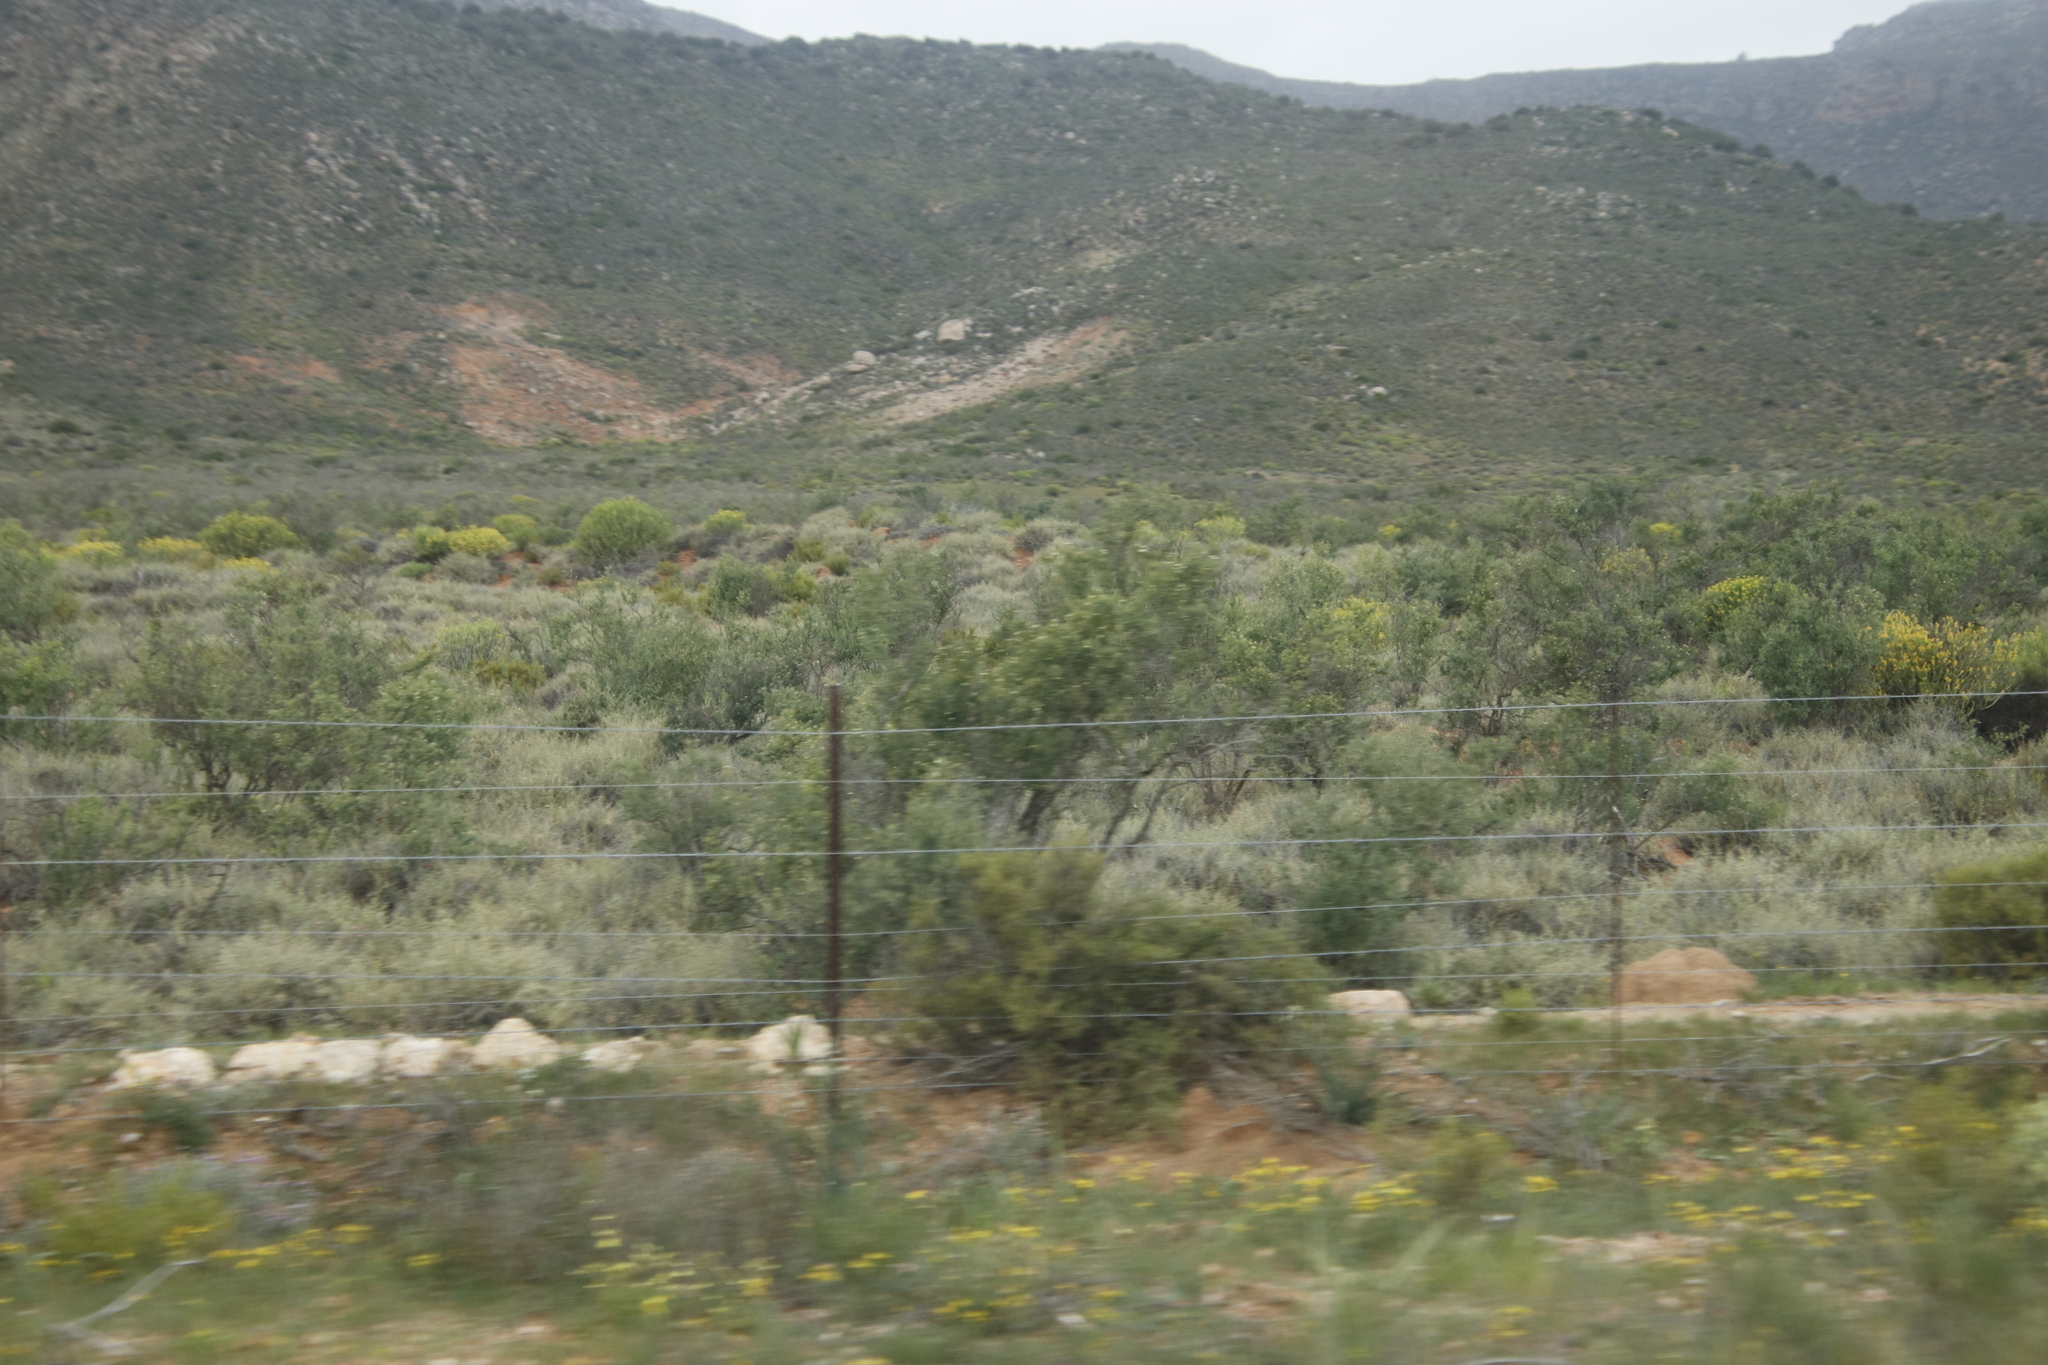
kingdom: Plantae
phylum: Tracheophyta
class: Magnoliopsida
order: Solanales
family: Montiniaceae
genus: Montinia
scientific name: Montinia caryophyllacea
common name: Wild clove-bush
